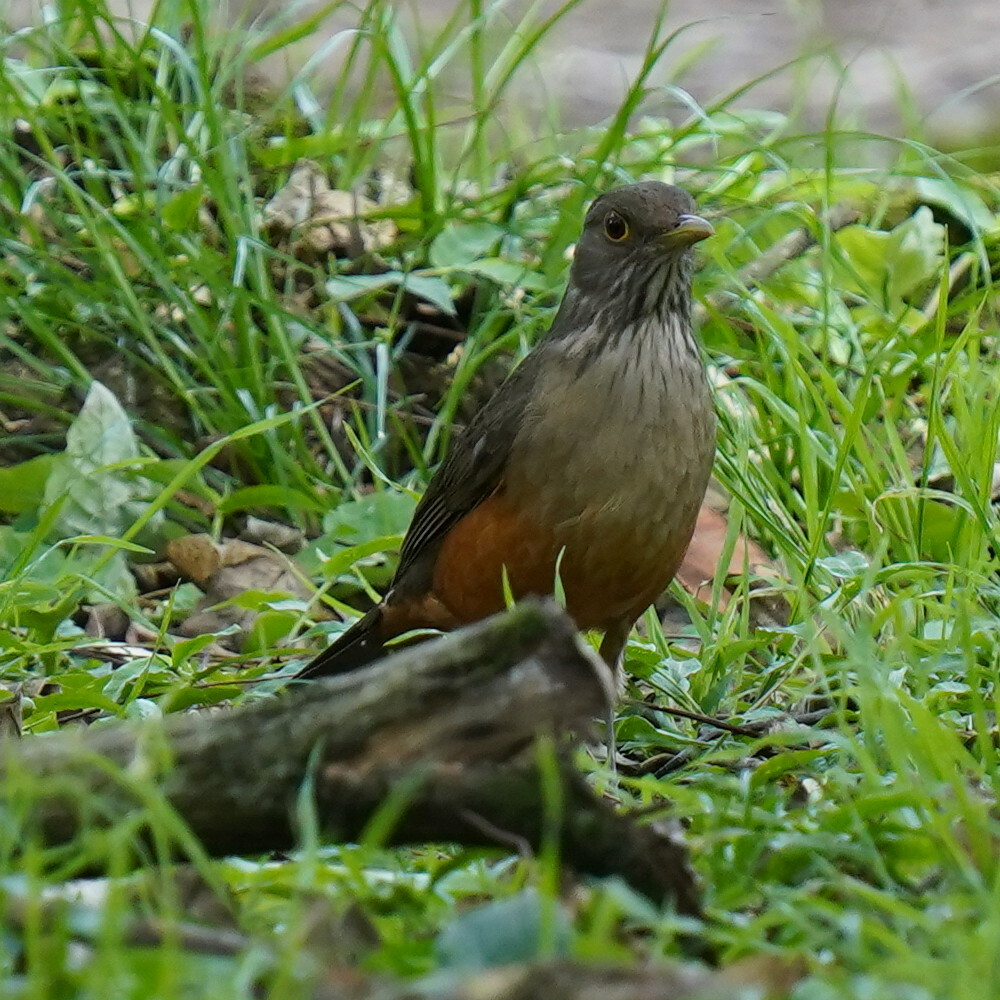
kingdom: Animalia
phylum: Chordata
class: Aves
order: Passeriformes
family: Turdidae
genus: Turdus
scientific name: Turdus rufiventris
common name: Rufous-bellied thrush
